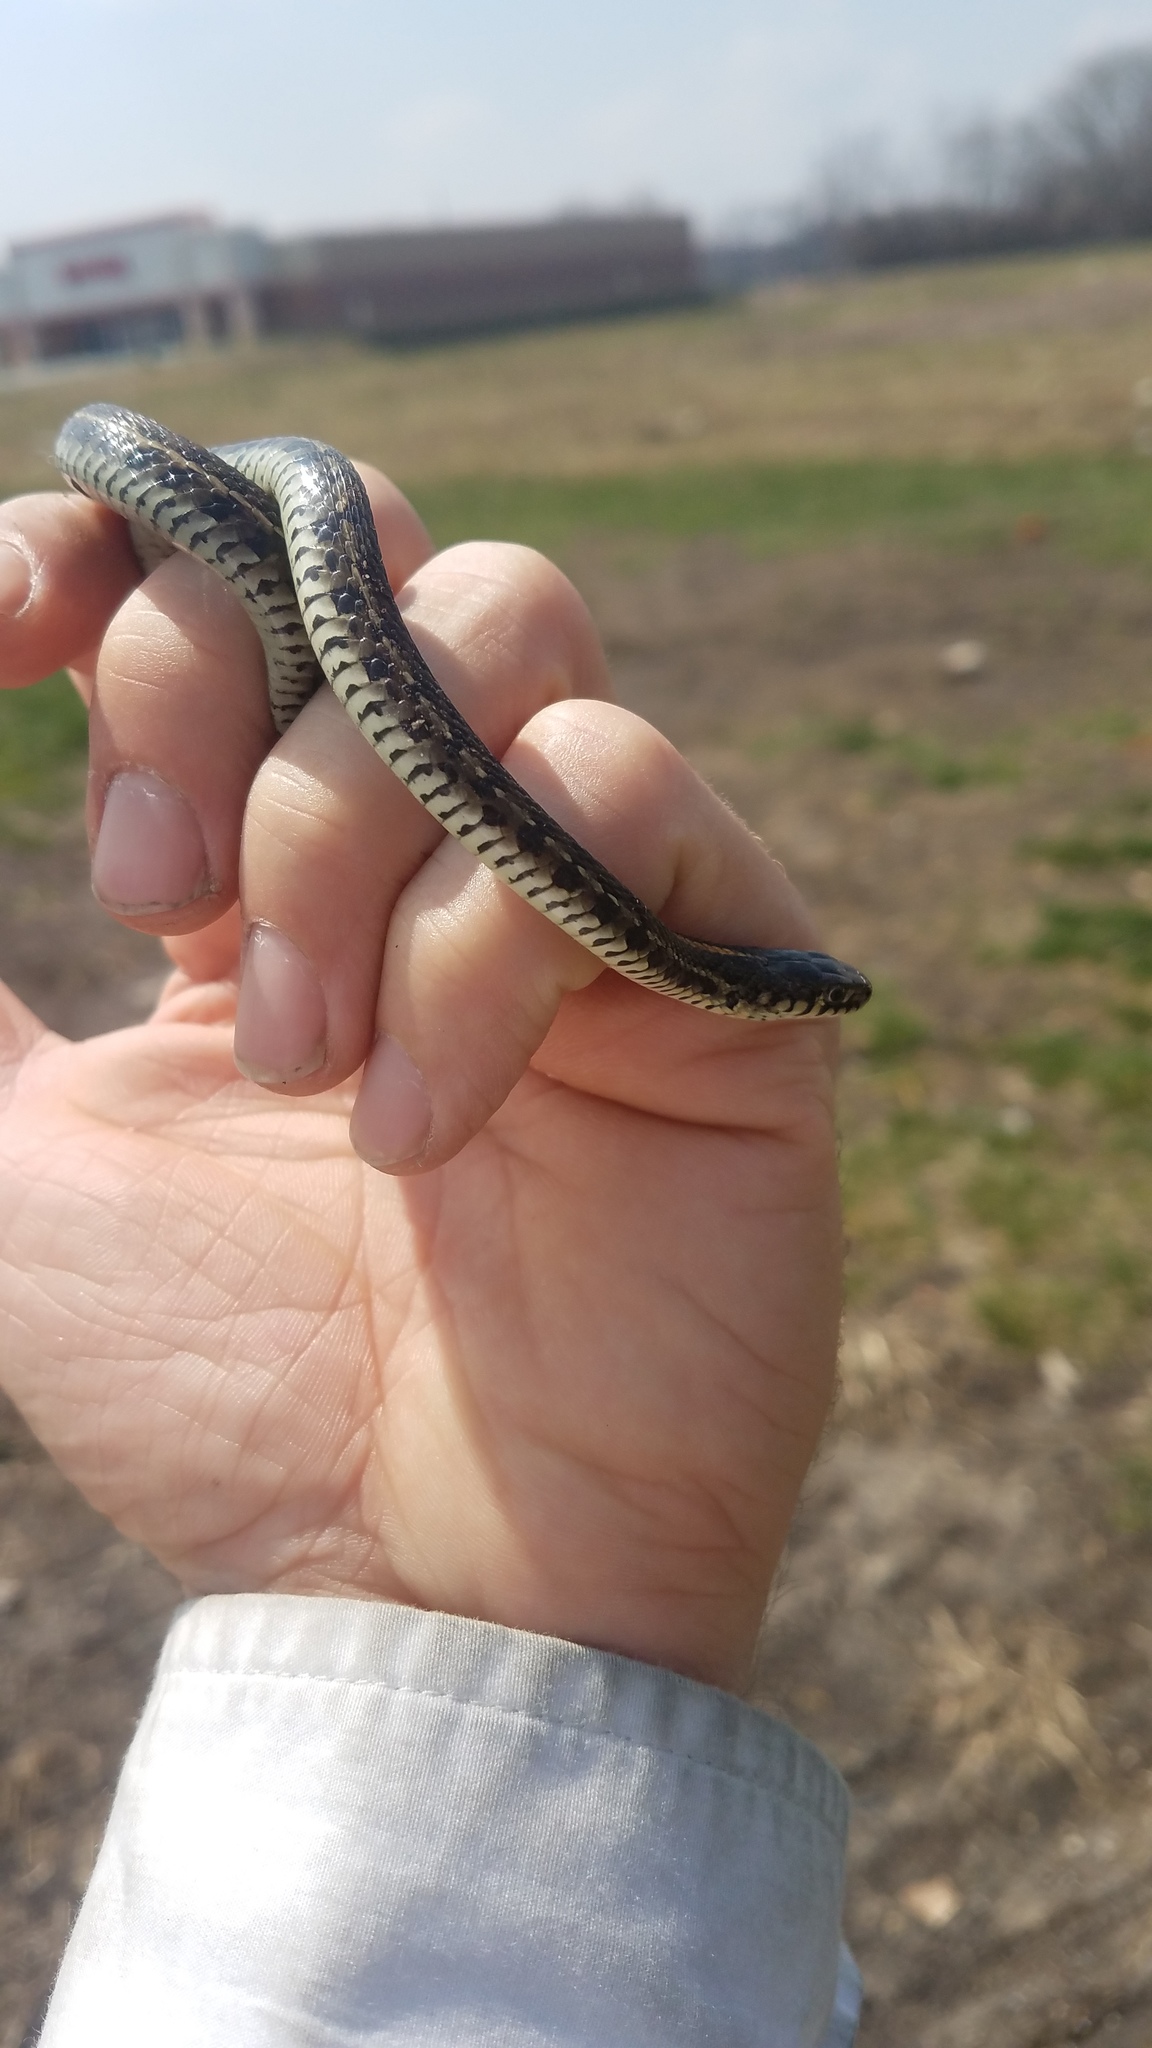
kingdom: Animalia
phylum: Chordata
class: Squamata
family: Colubridae
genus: Thamnophis
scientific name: Thamnophis radix
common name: Plains garter snake
